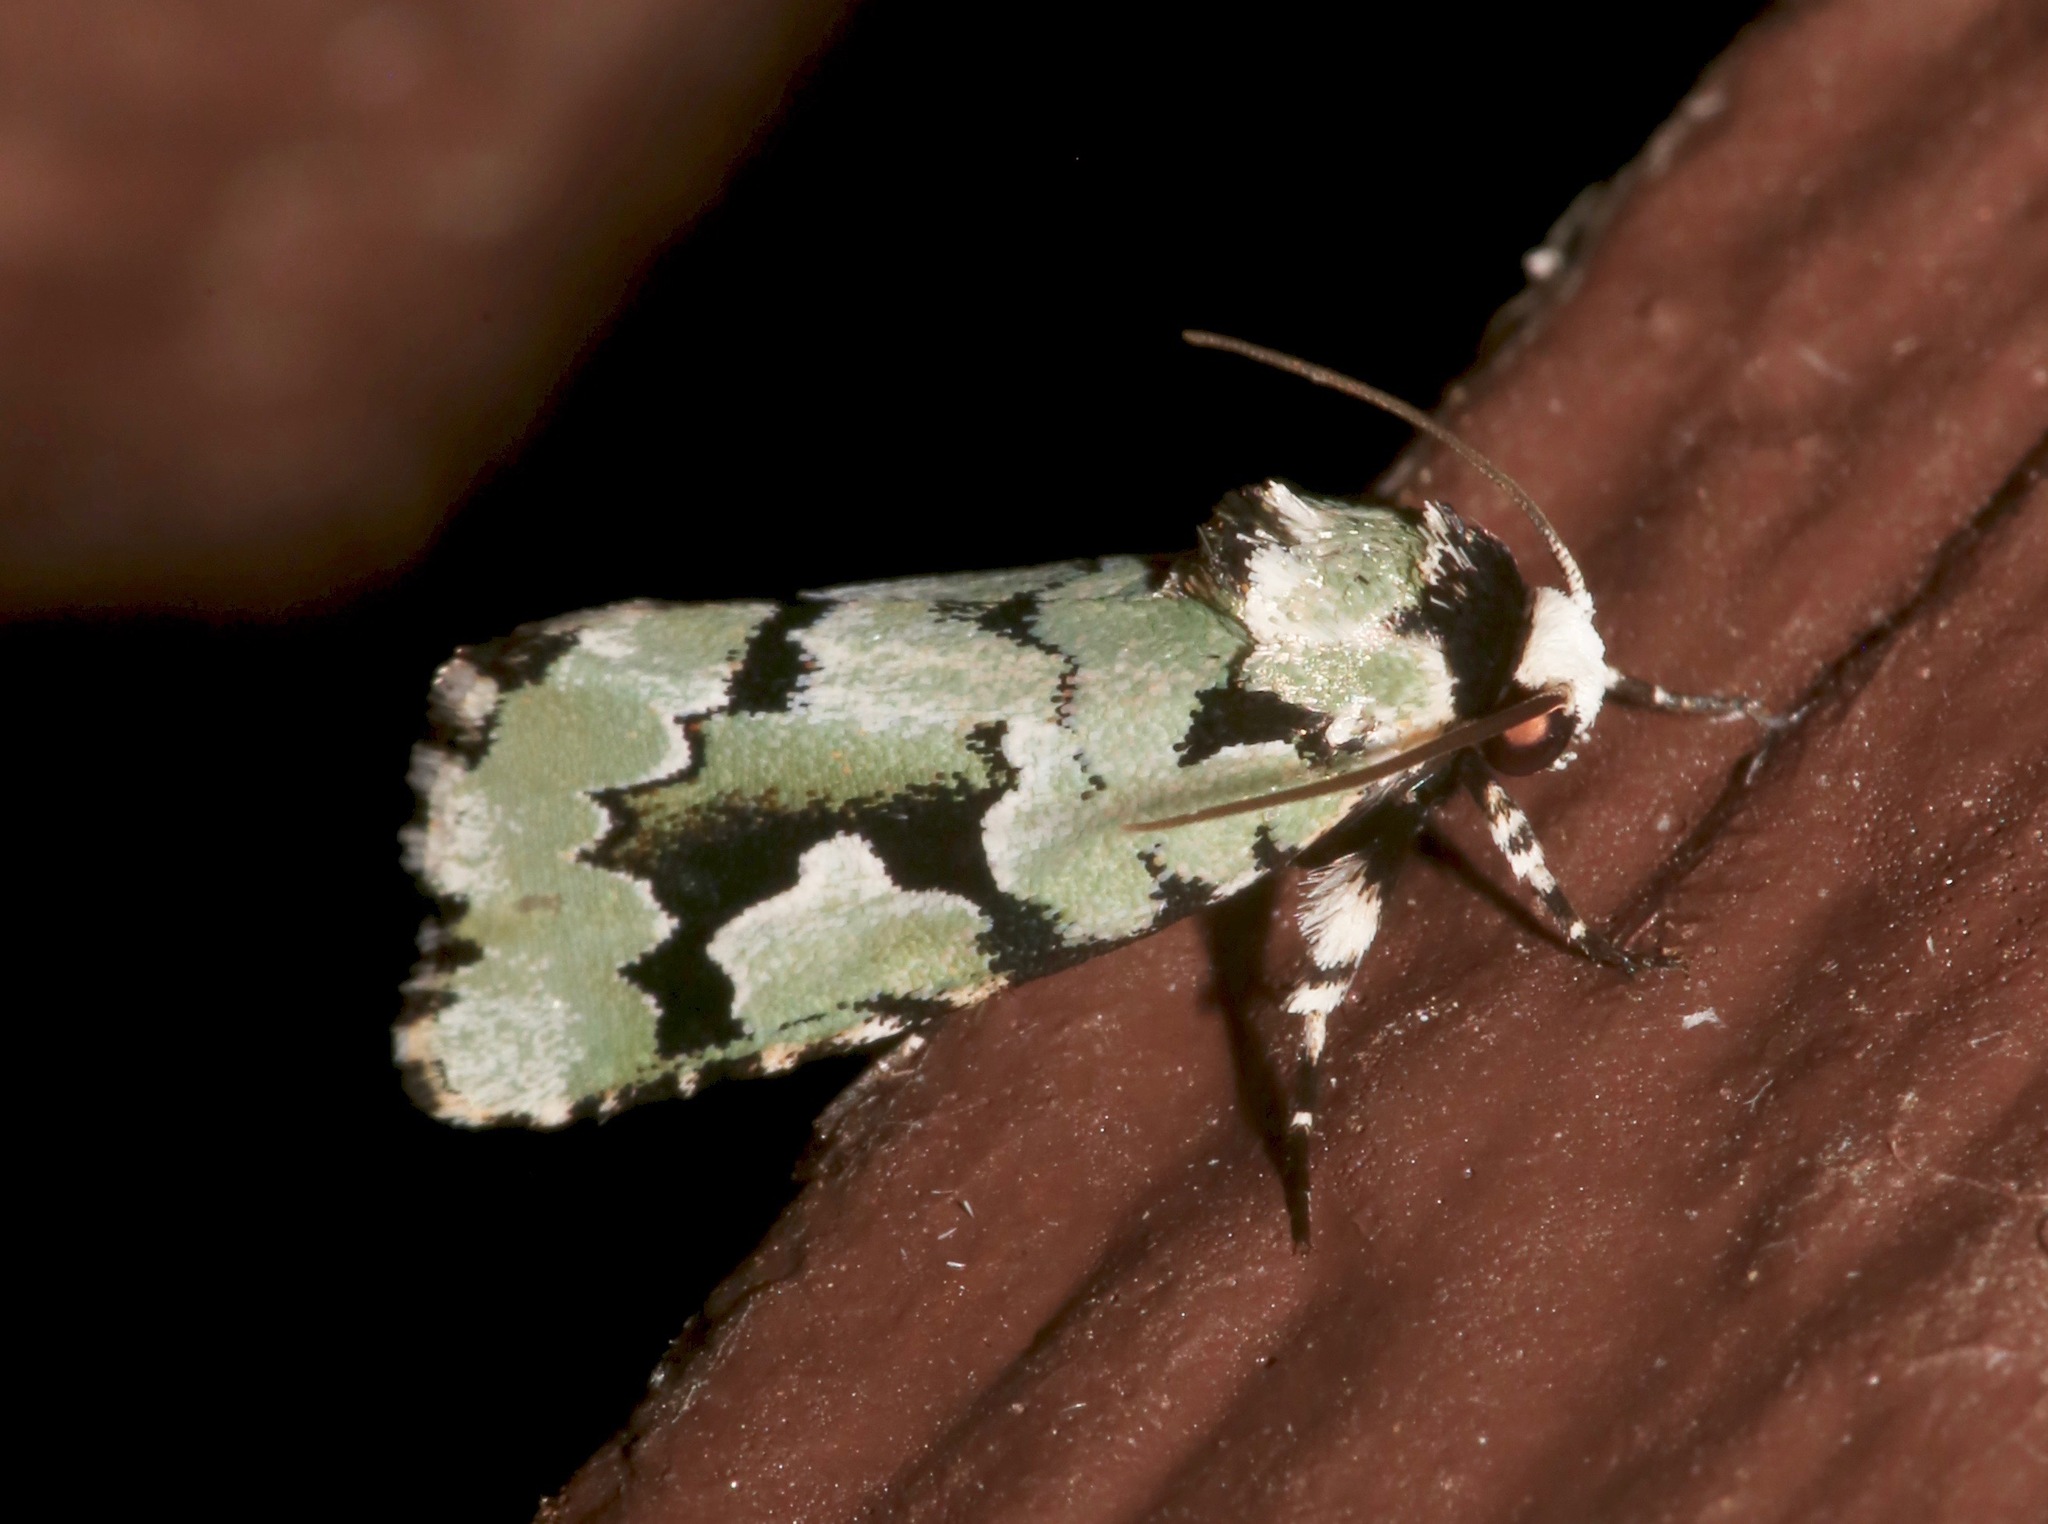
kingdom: Animalia
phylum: Arthropoda
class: Insecta
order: Lepidoptera
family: Noctuidae
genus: Emarginea
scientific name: Emarginea dulcinea
